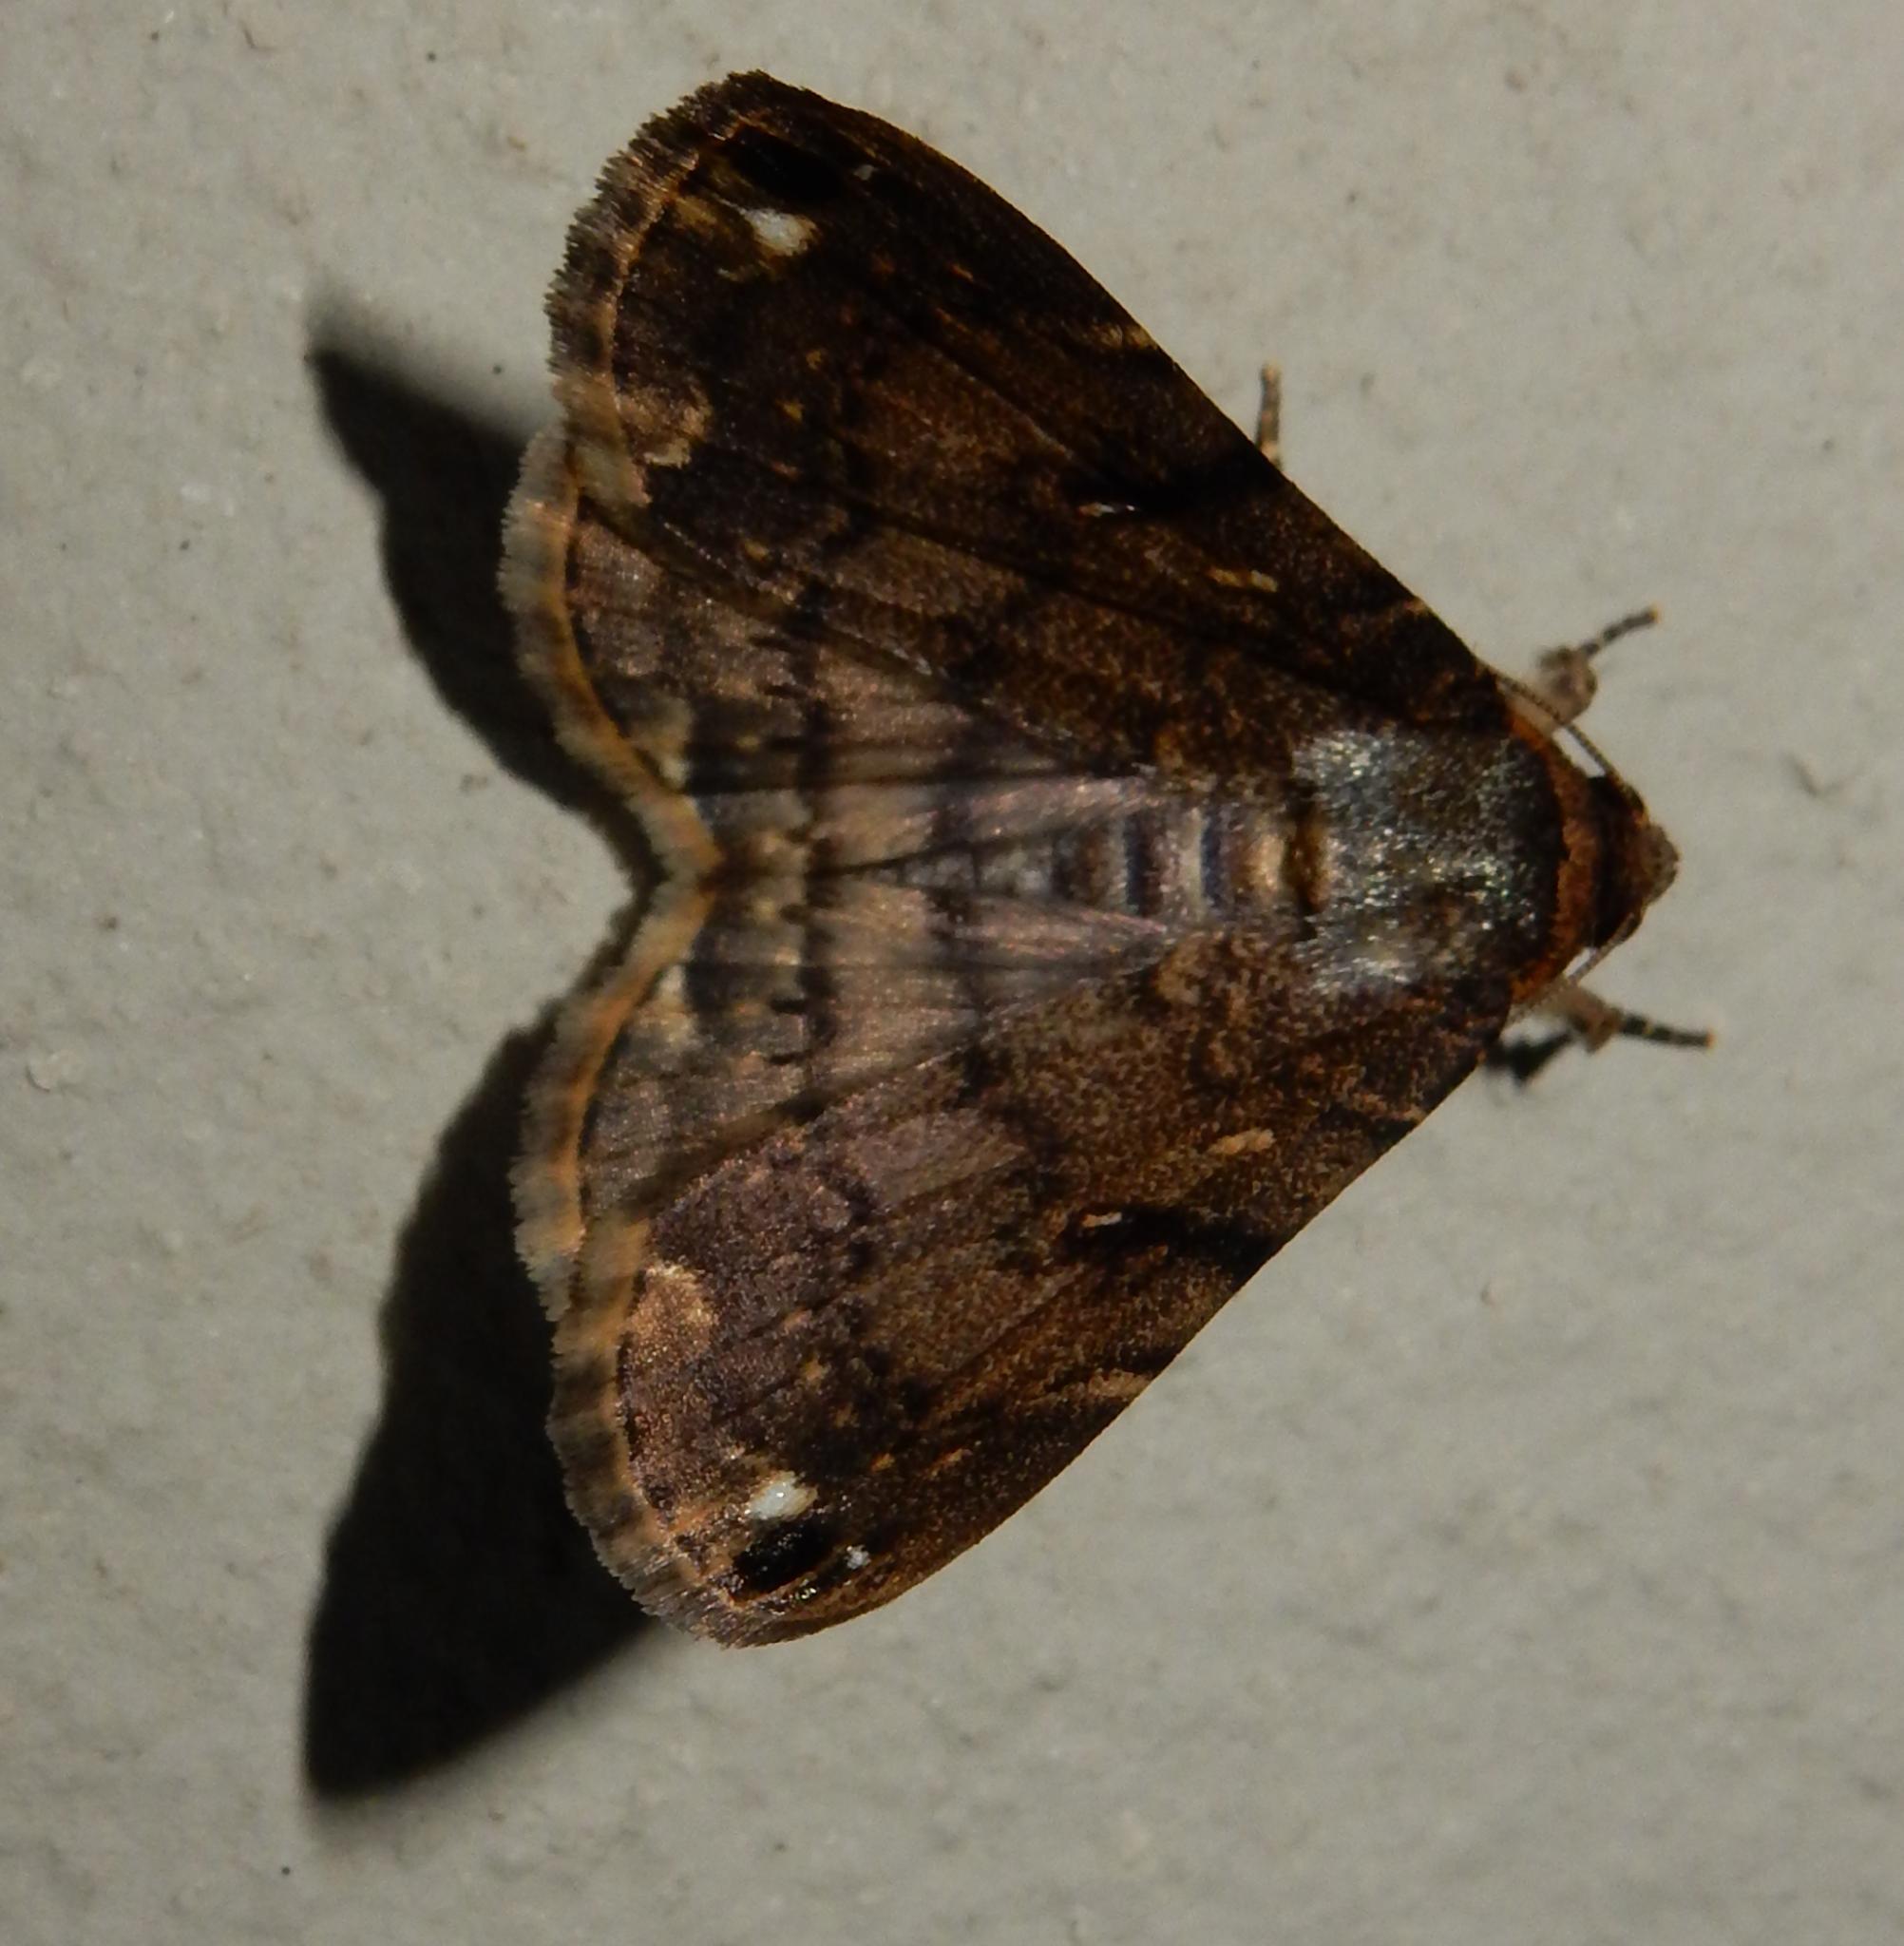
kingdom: Animalia
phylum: Arthropoda
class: Insecta
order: Lepidoptera
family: Erebidae
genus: Bareia
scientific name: Bareia incidens
